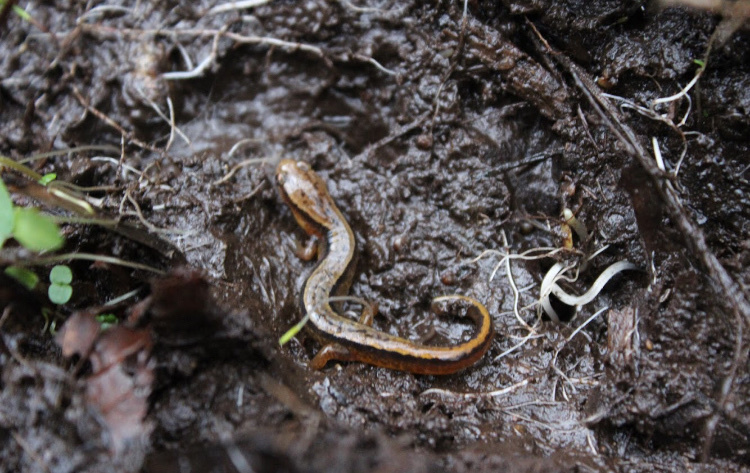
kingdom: Animalia
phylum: Chordata
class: Amphibia
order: Caudata
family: Plethodontidae
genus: Eurycea
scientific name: Eurycea cirrigera
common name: Southern two-lined salamander
